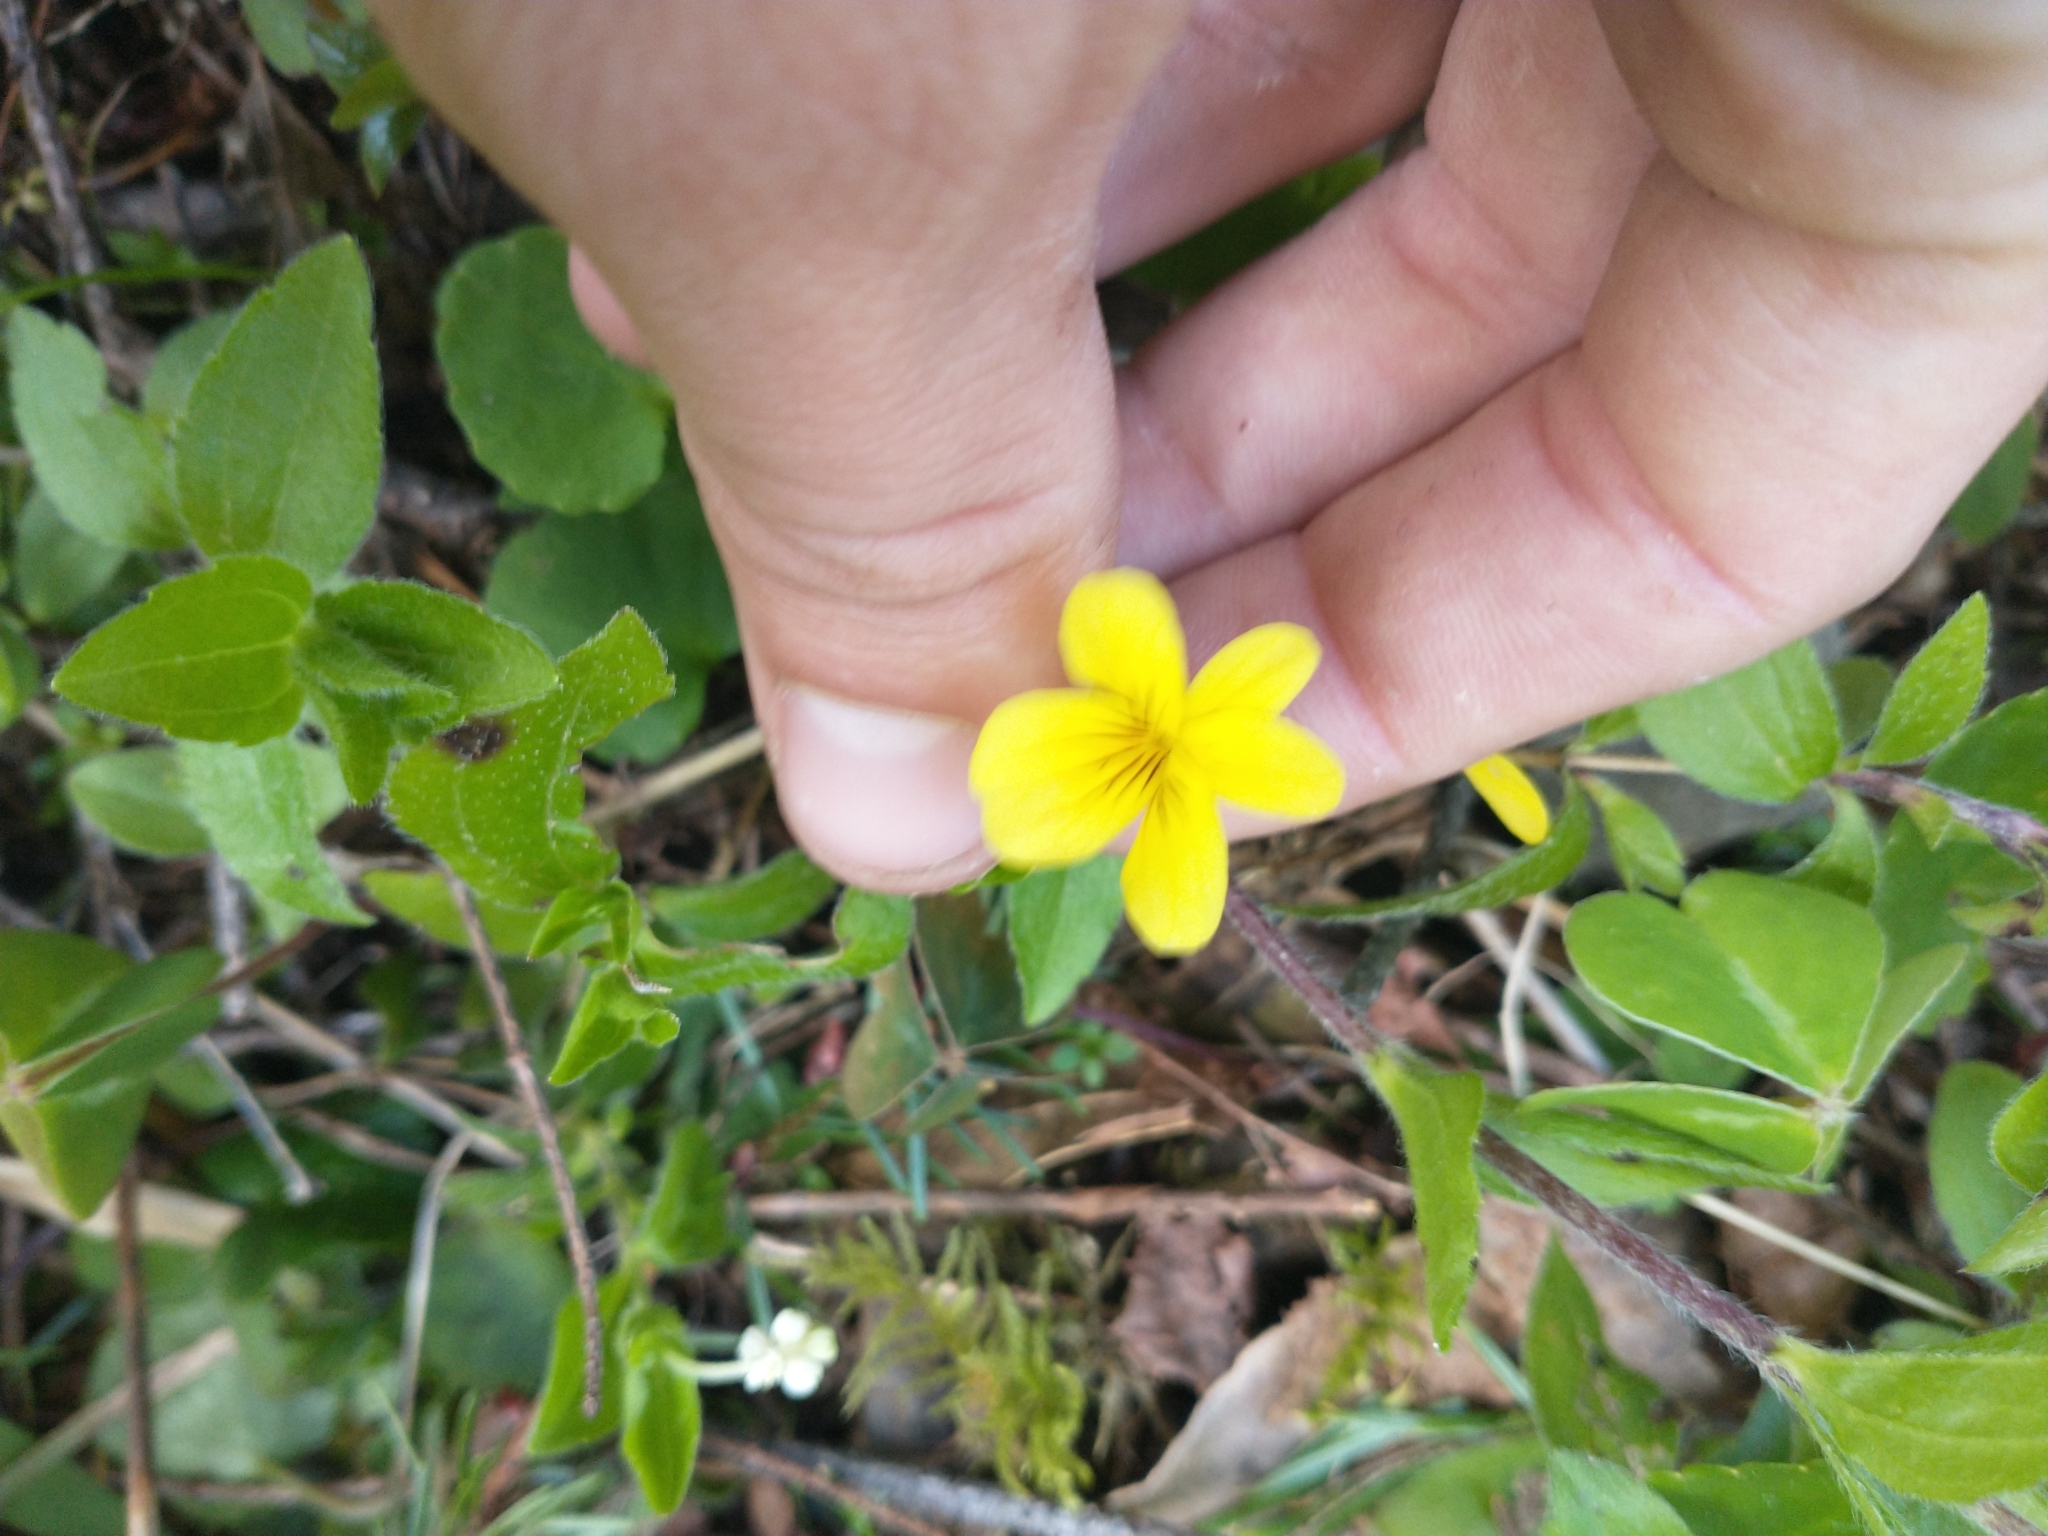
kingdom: Plantae
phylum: Tracheophyta
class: Magnoliopsida
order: Malpighiales
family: Violaceae
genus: Viola
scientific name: Viola sempervirens
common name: Evergreen violet
